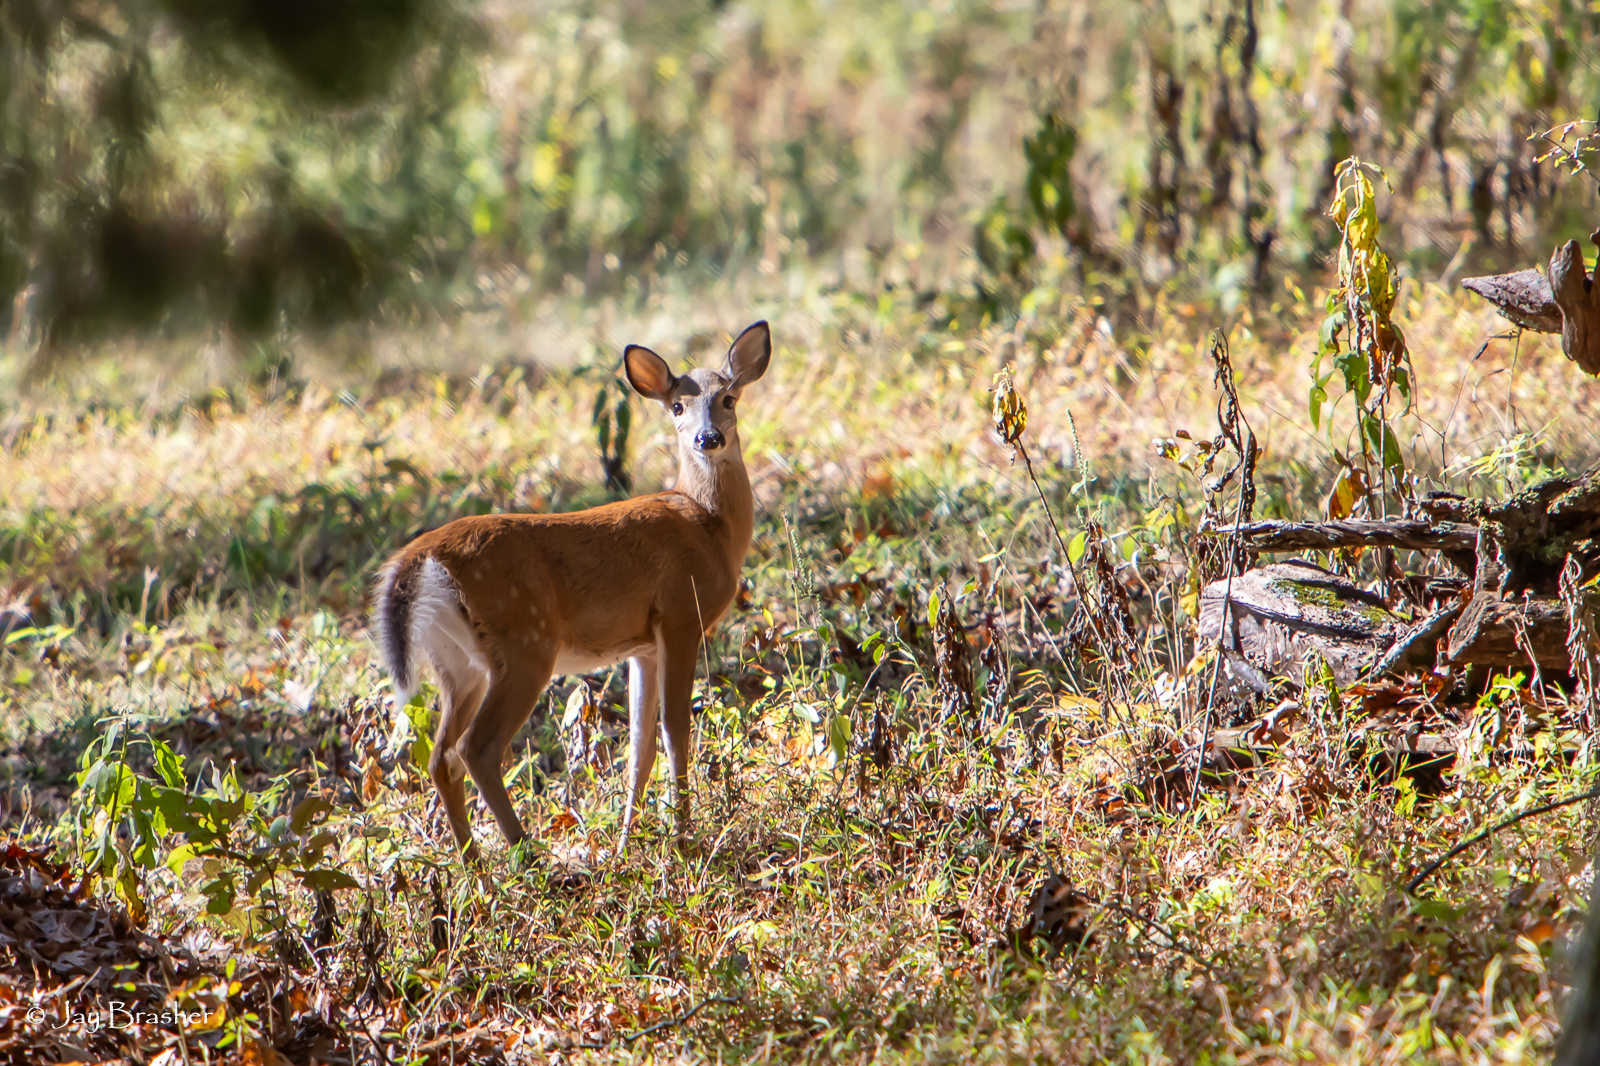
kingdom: Animalia
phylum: Chordata
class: Mammalia
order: Artiodactyla
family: Cervidae
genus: Odocoileus
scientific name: Odocoileus virginianus
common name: White-tailed deer
